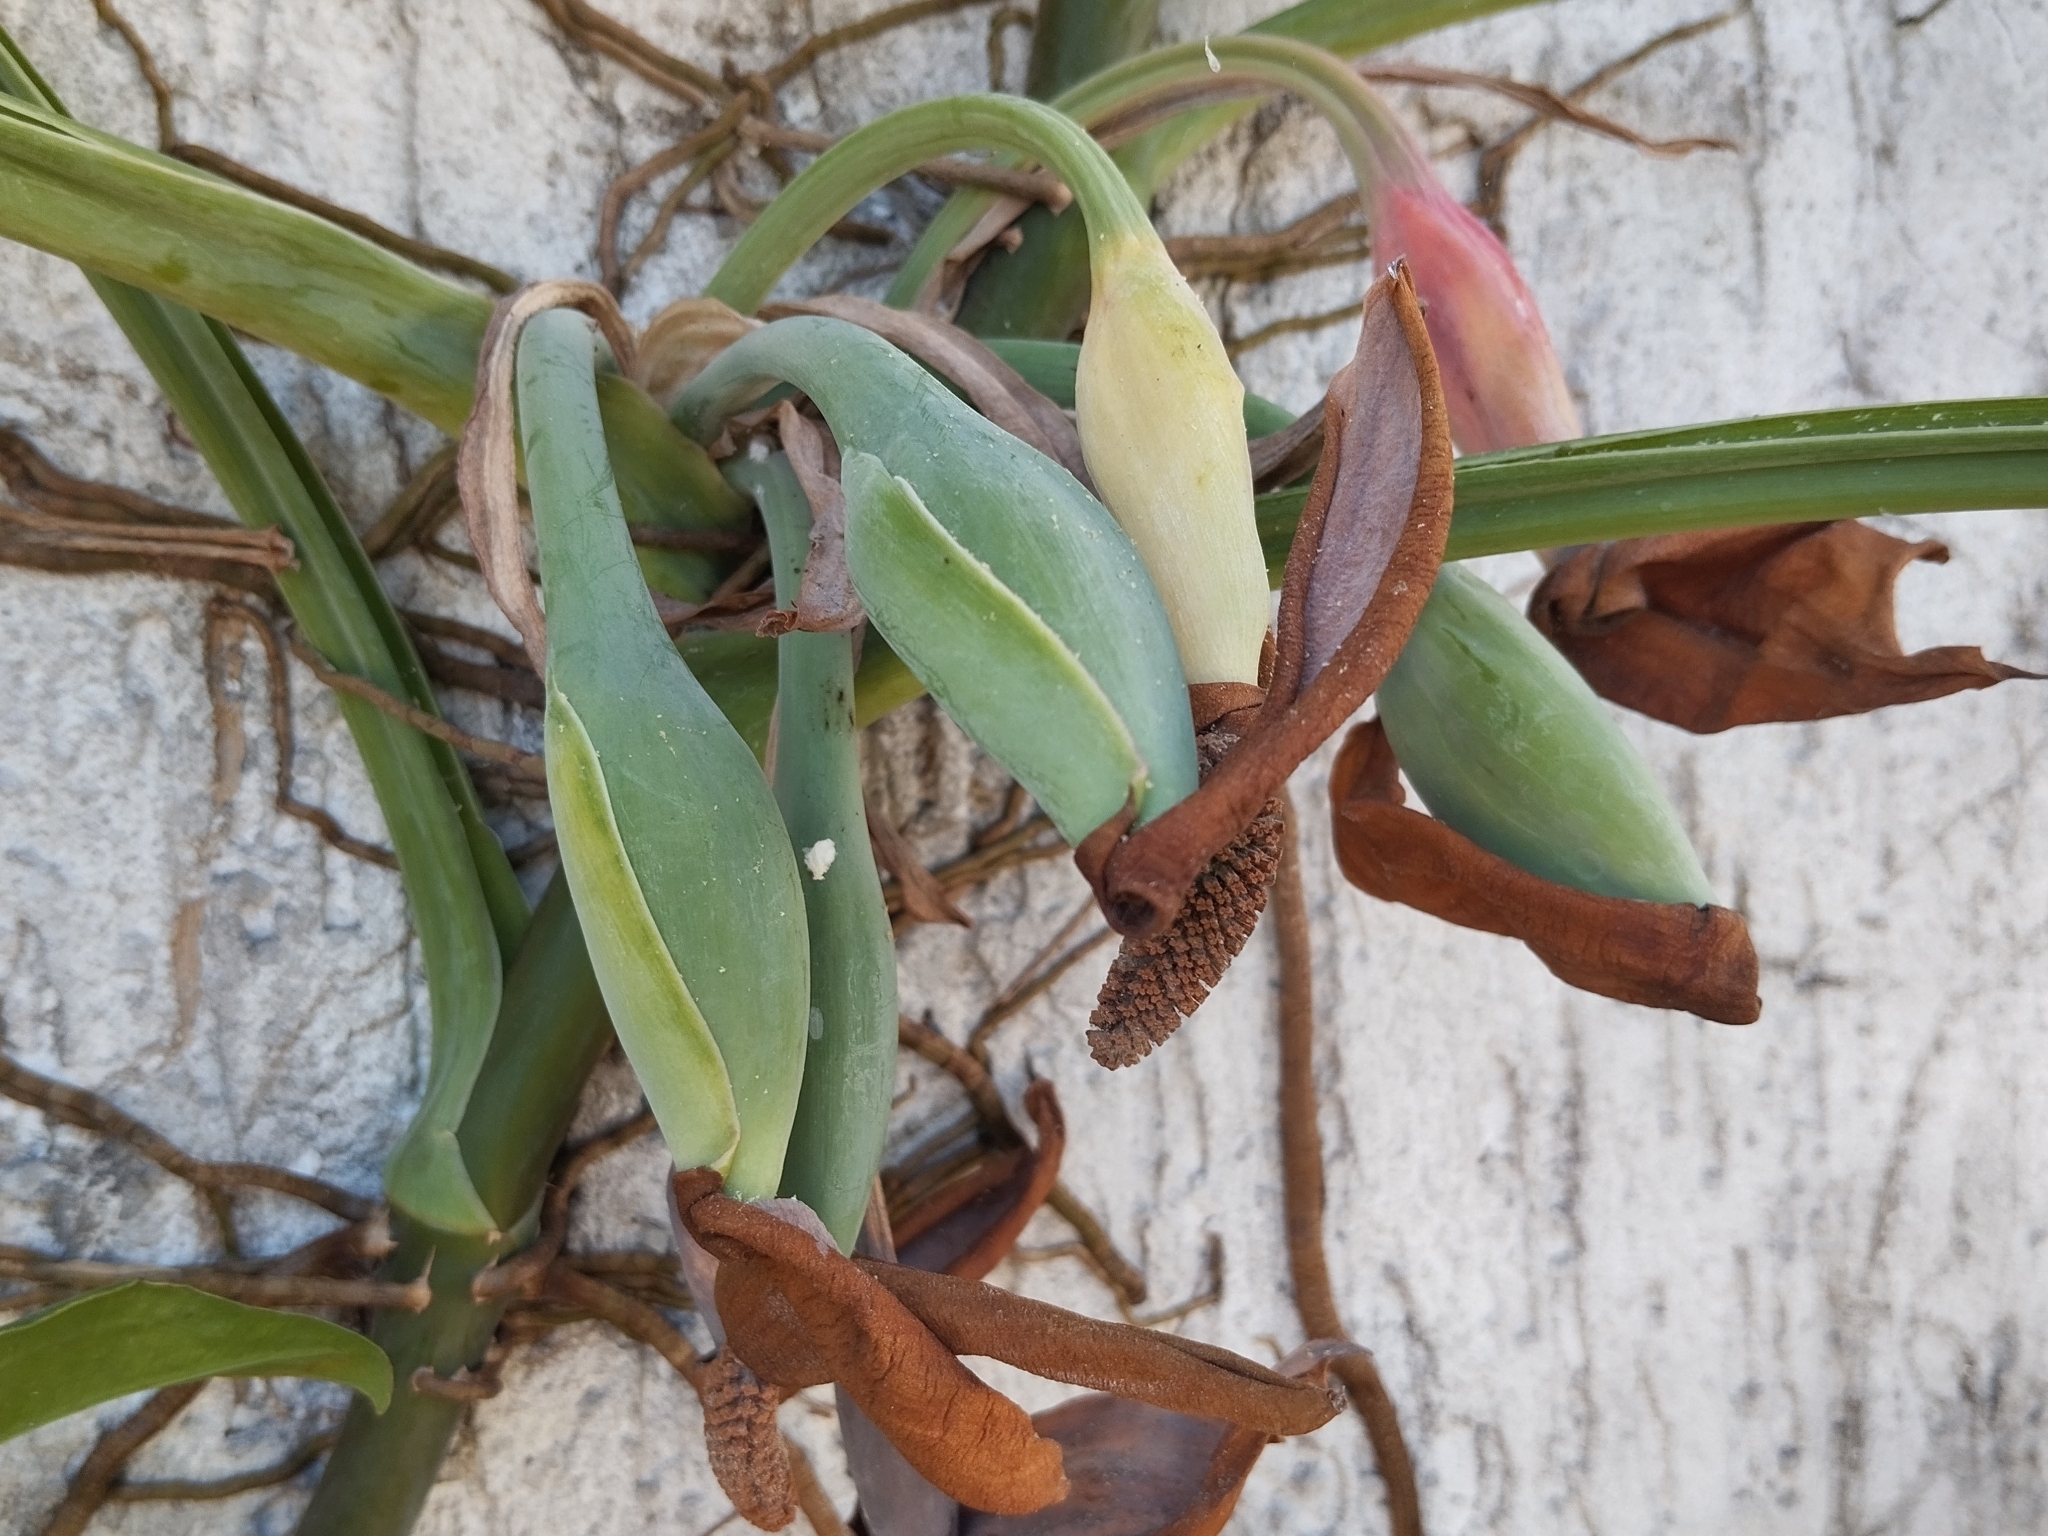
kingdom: Plantae
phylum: Tracheophyta
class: Liliopsida
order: Alismatales
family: Araceae
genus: Syngonium
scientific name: Syngonium angustatum
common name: Fivefingers
